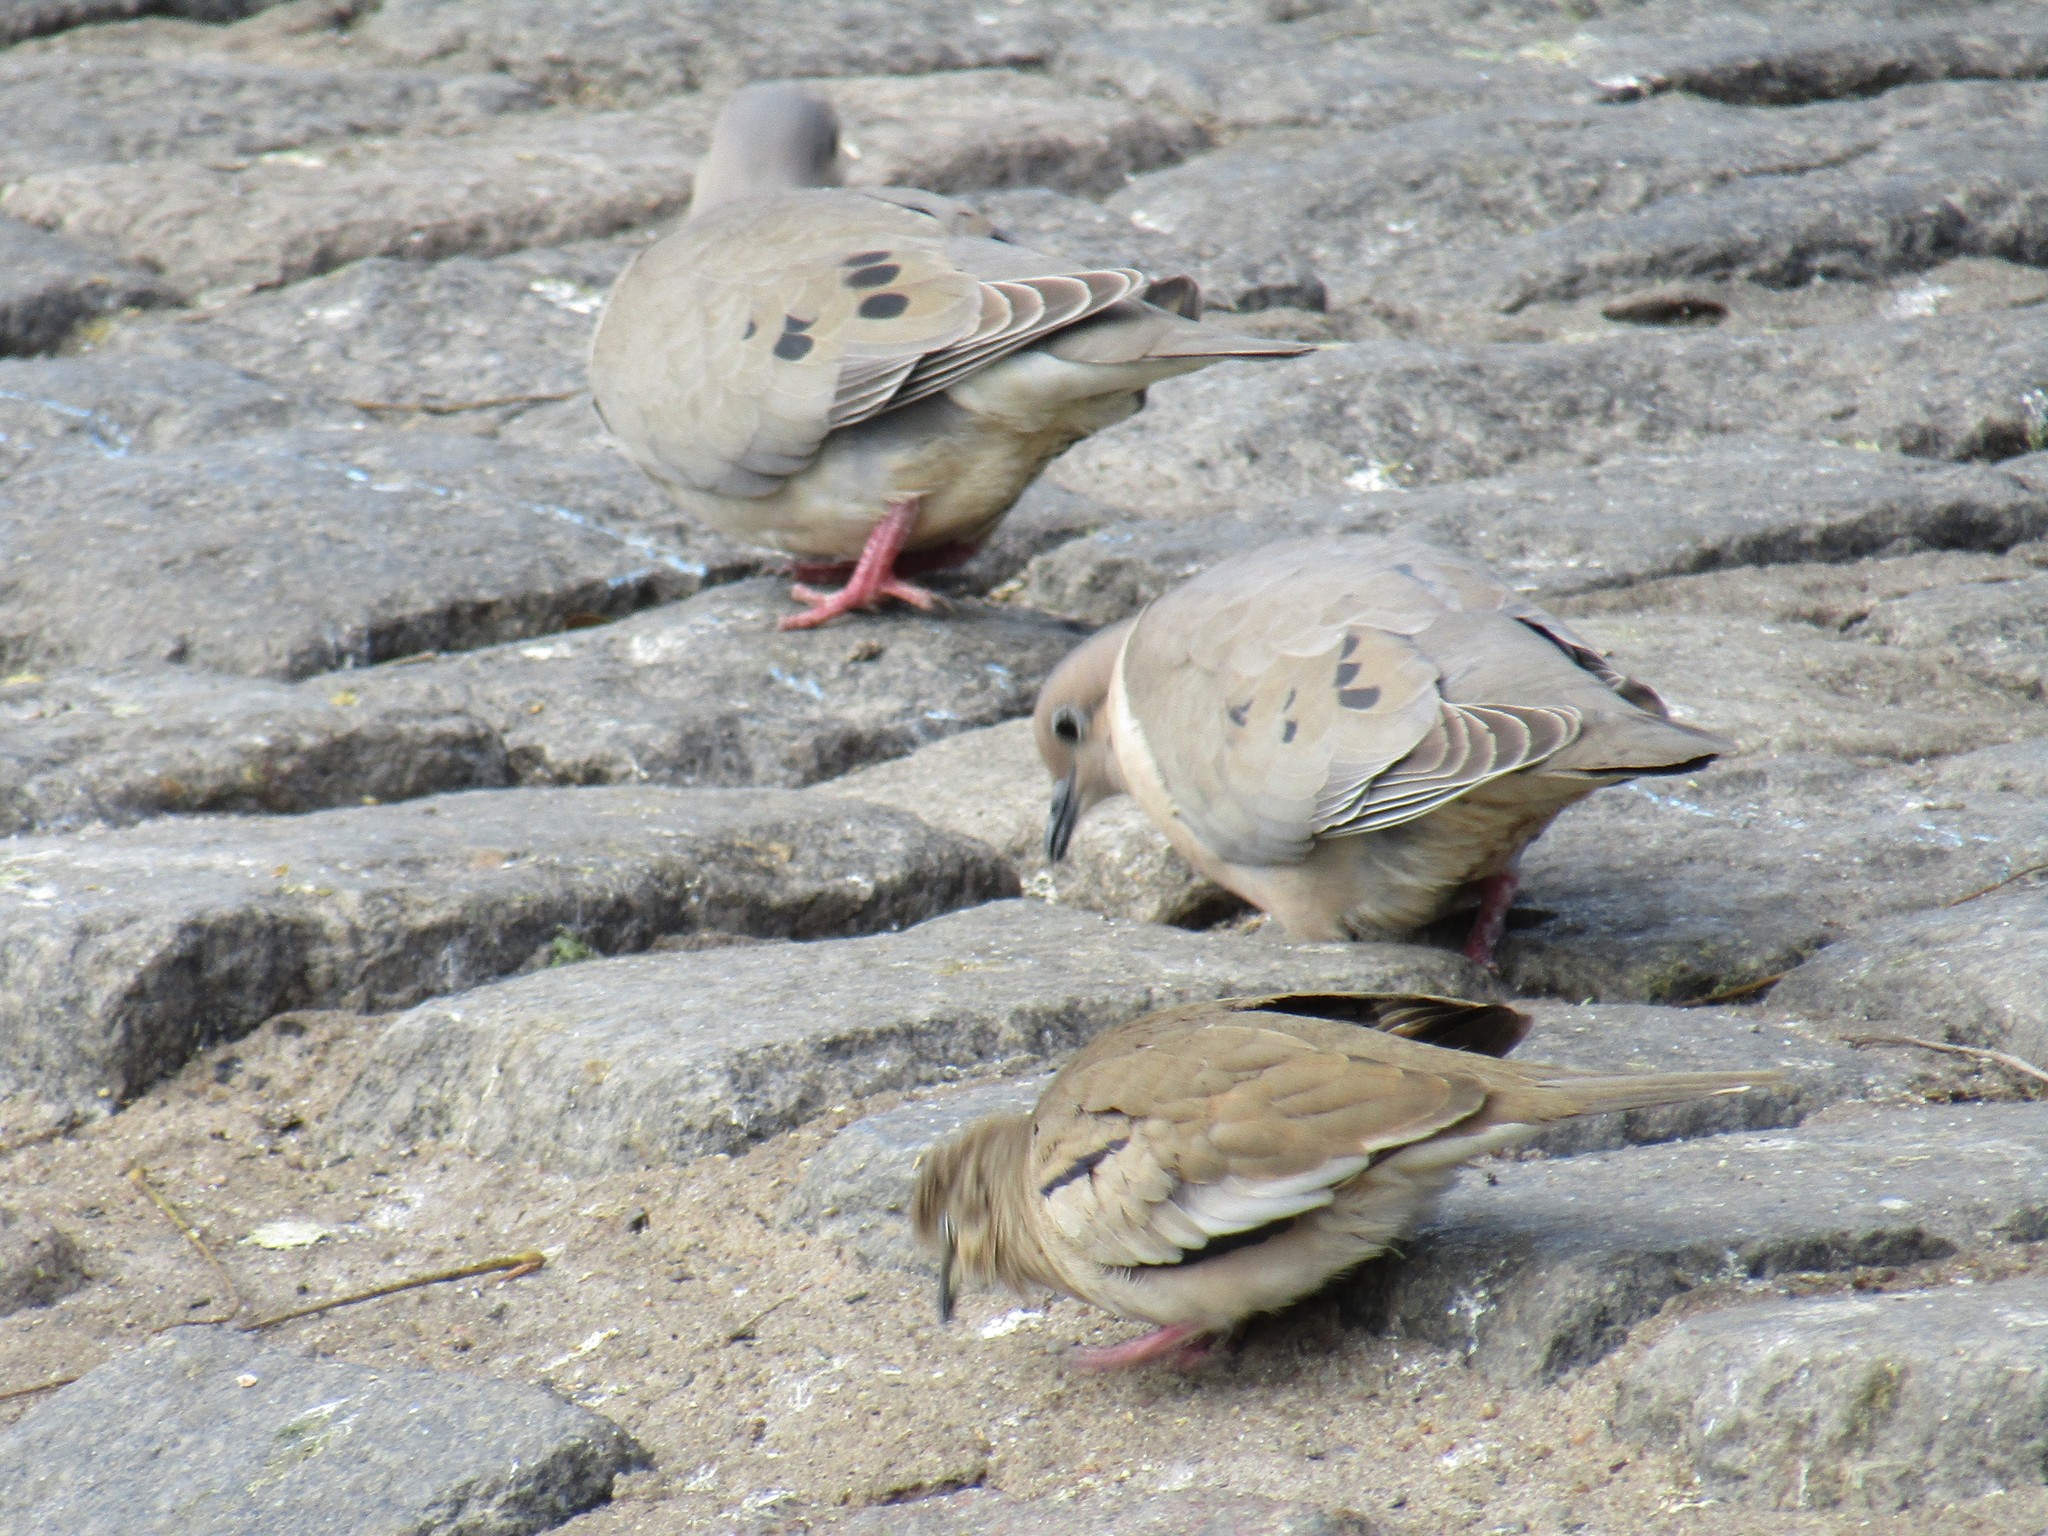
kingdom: Animalia
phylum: Chordata
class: Aves
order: Columbiformes
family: Columbidae
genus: Zenaida
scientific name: Zenaida auriculata
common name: Eared dove
